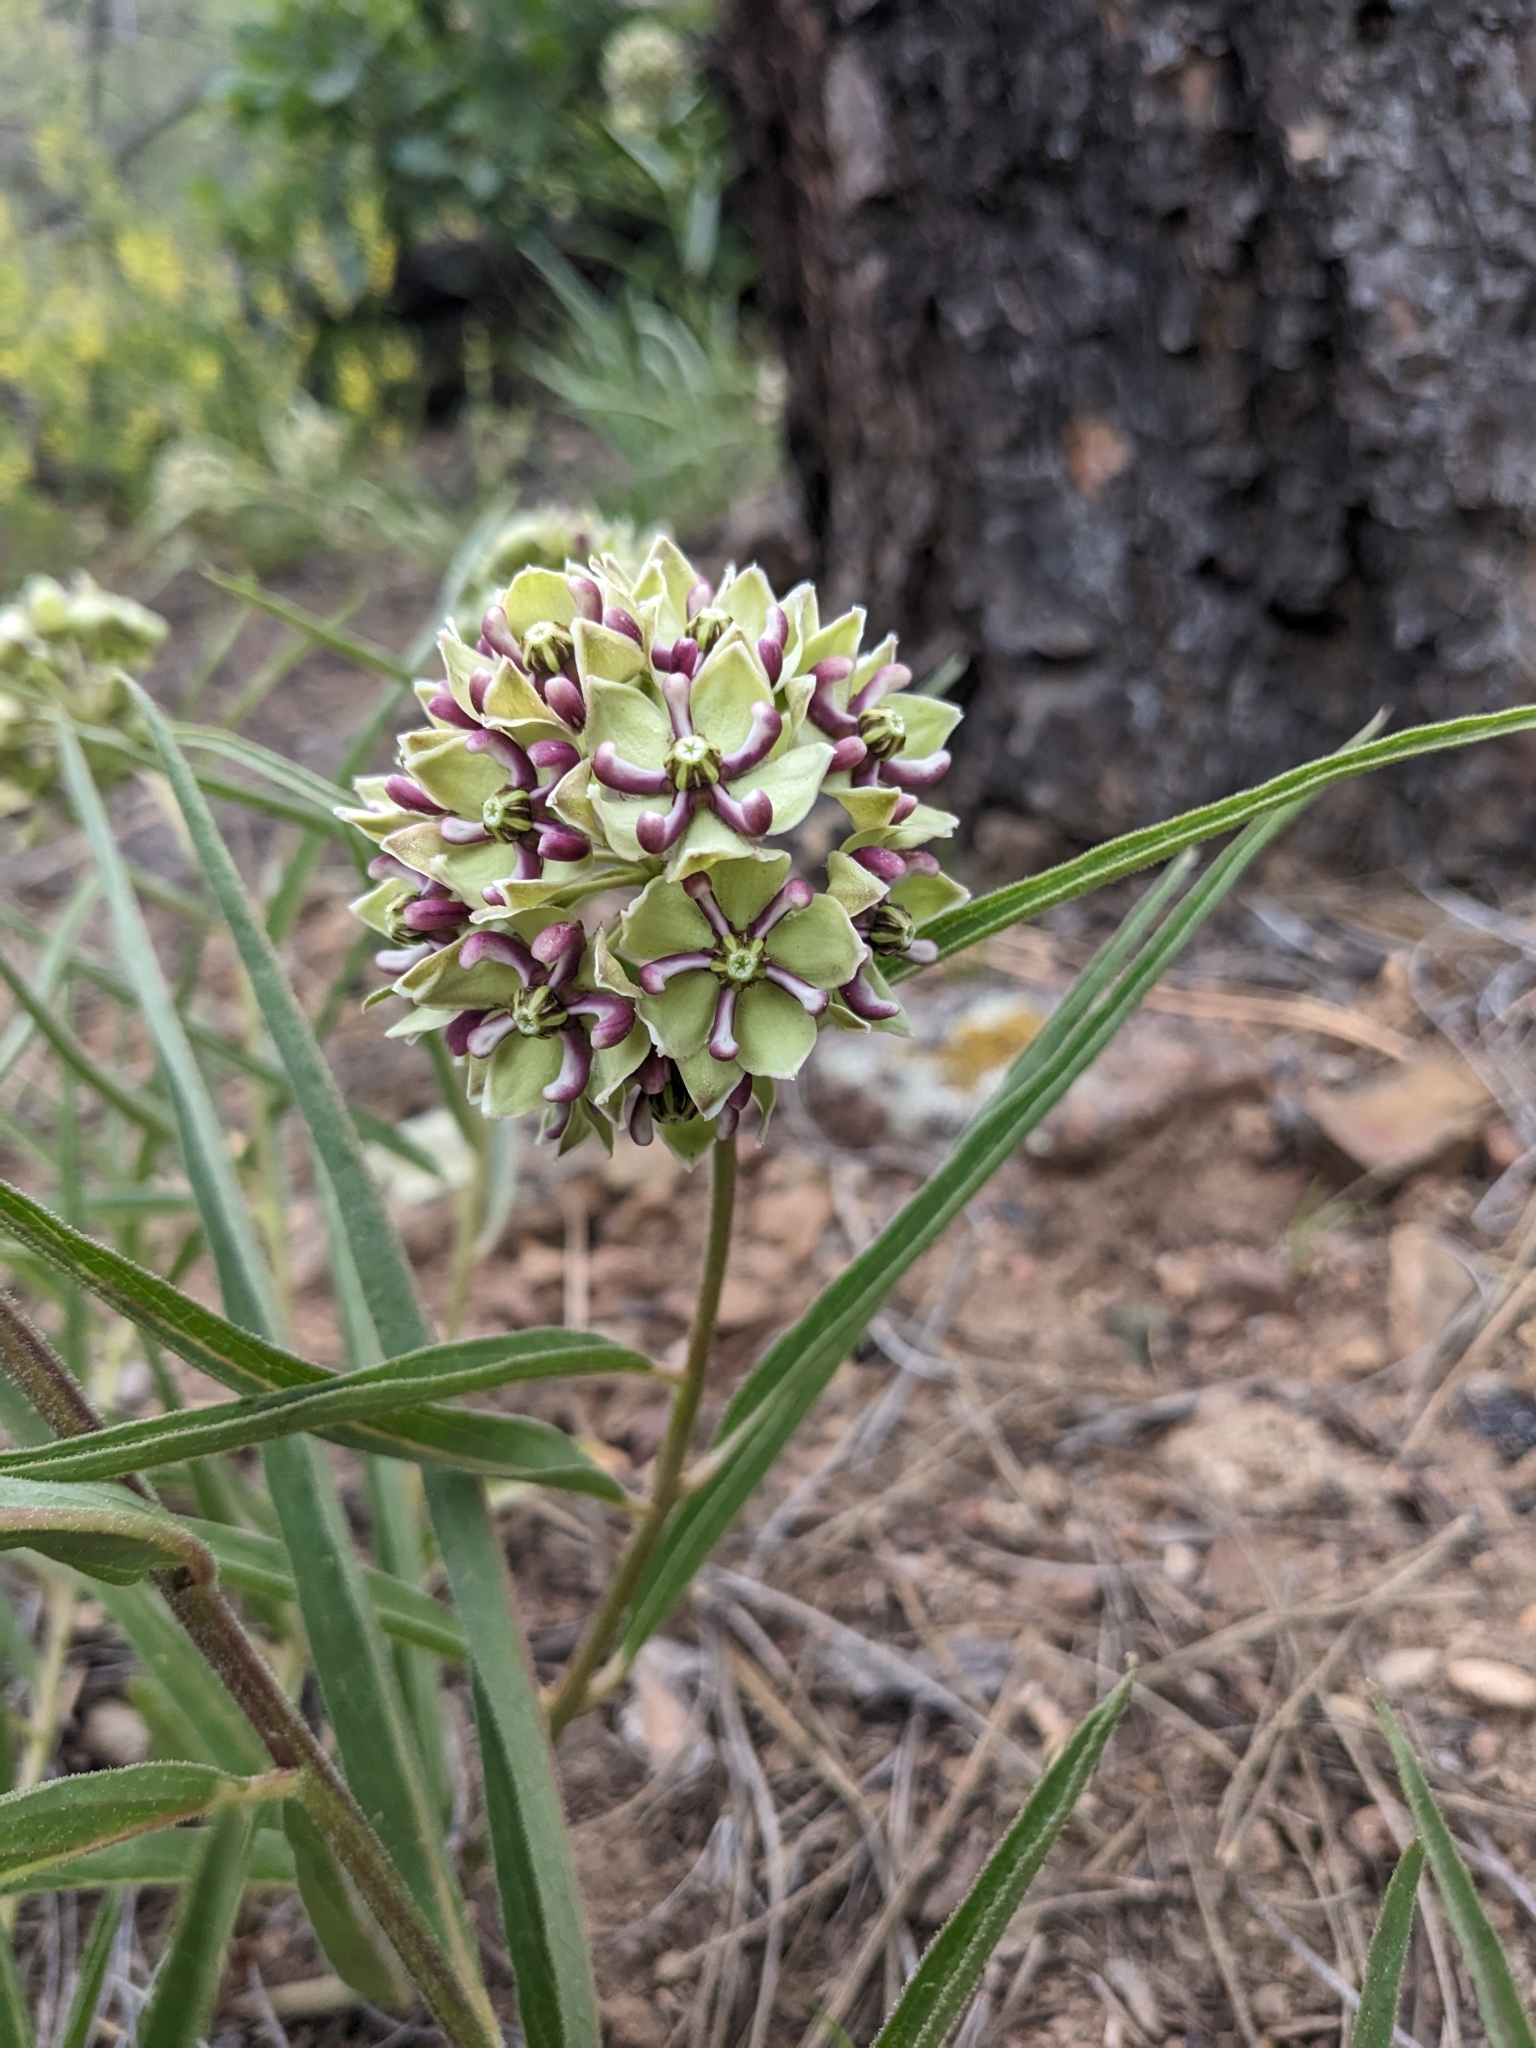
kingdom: Plantae
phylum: Tracheophyta
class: Magnoliopsida
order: Gentianales
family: Apocynaceae
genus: Asclepias
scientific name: Asclepias asperula
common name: Antelope horns
